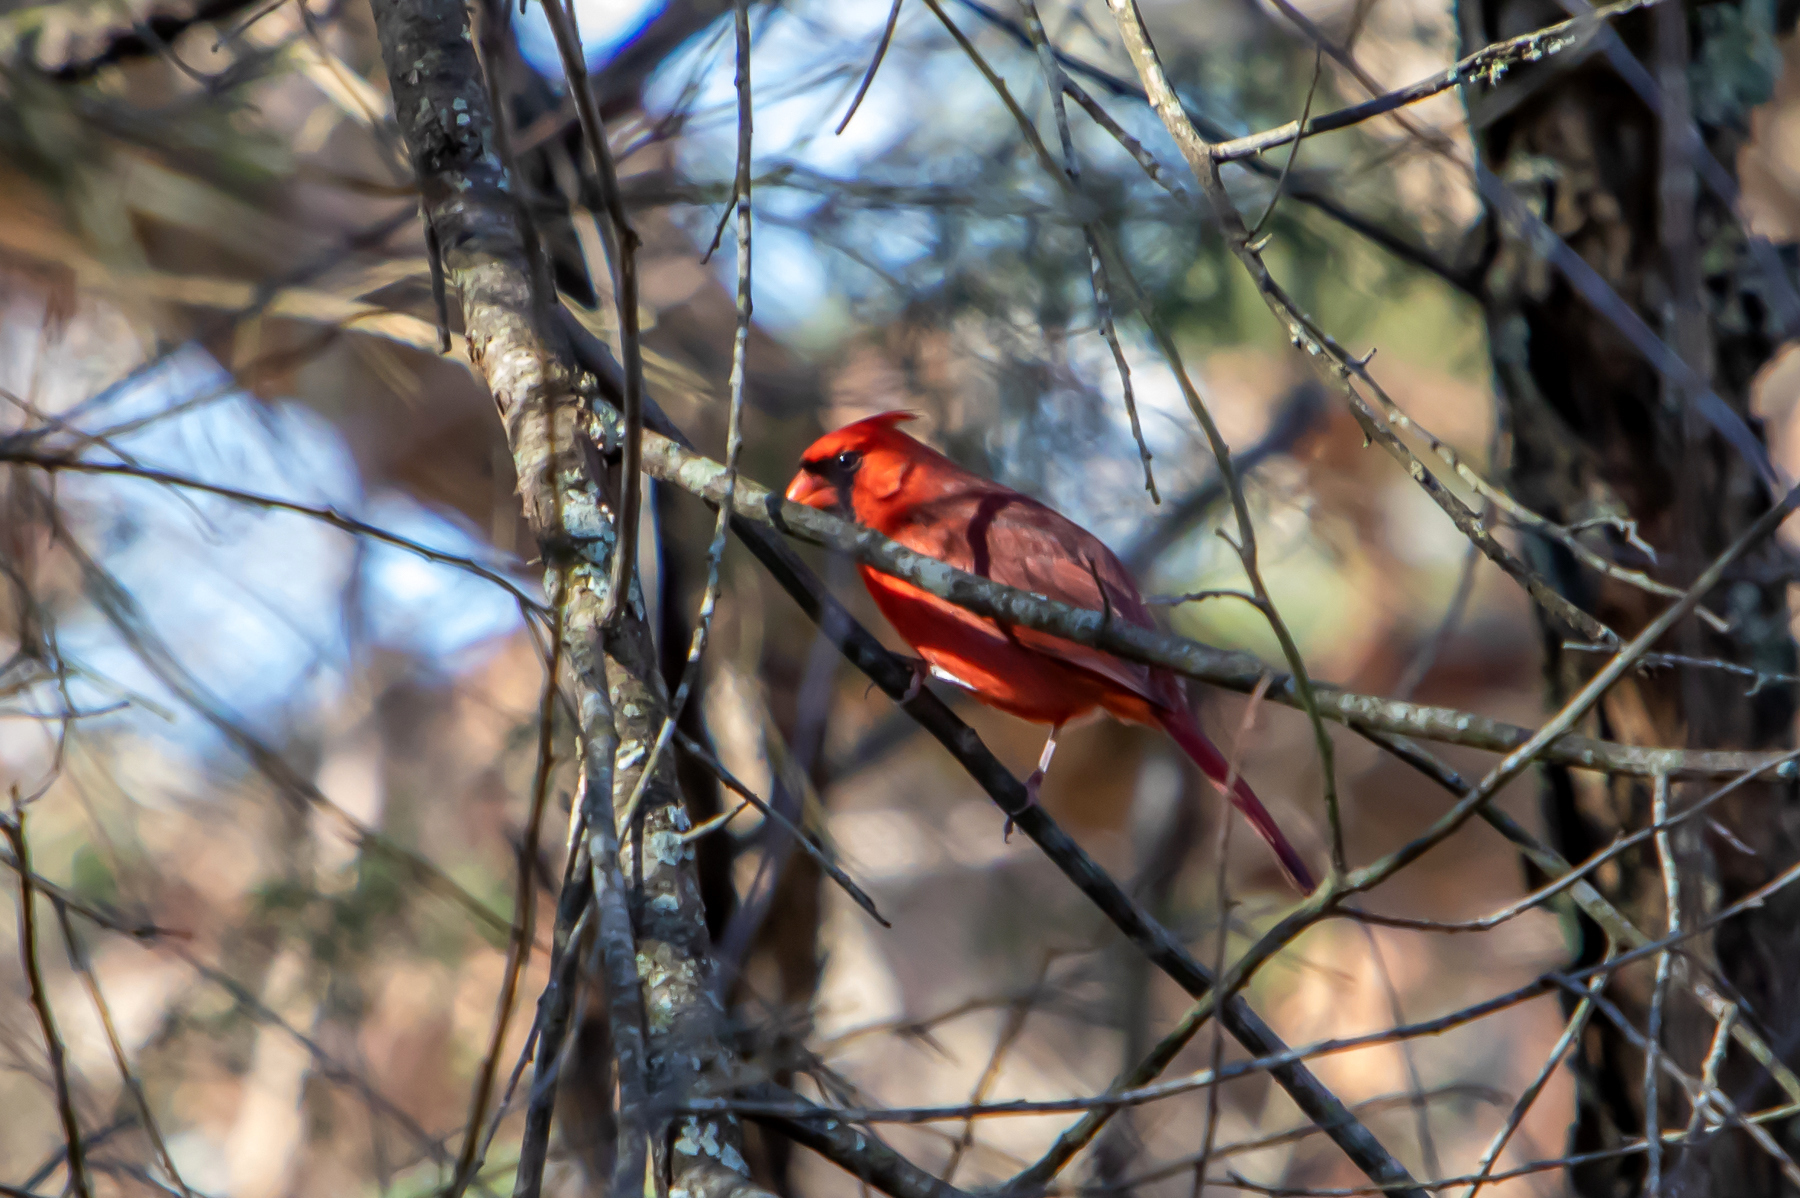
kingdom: Animalia
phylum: Chordata
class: Aves
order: Passeriformes
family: Cardinalidae
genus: Cardinalis
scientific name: Cardinalis cardinalis
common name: Northern cardinal
